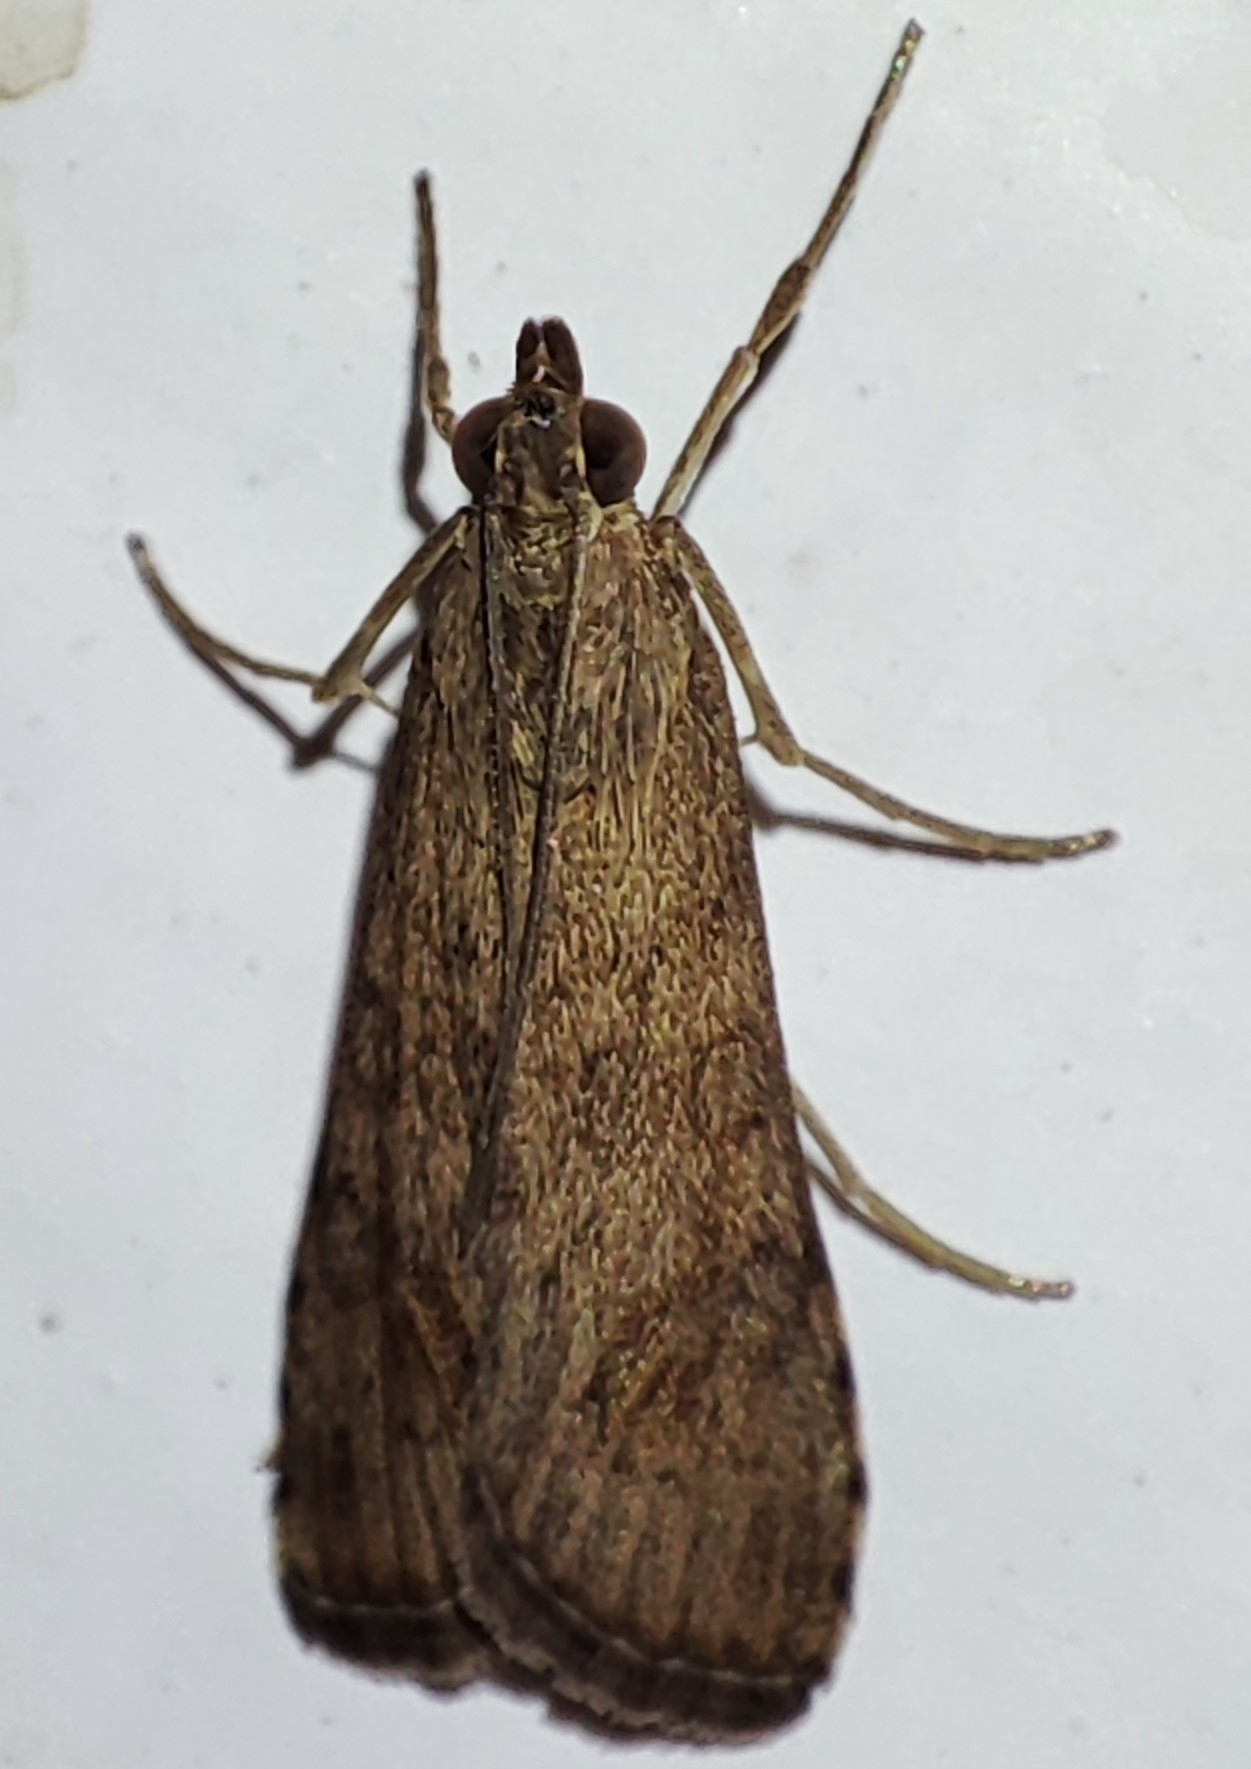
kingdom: Animalia
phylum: Arthropoda
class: Insecta
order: Lepidoptera
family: Crambidae
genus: Nomophila
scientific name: Nomophila noctuella
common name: Rush veneer
